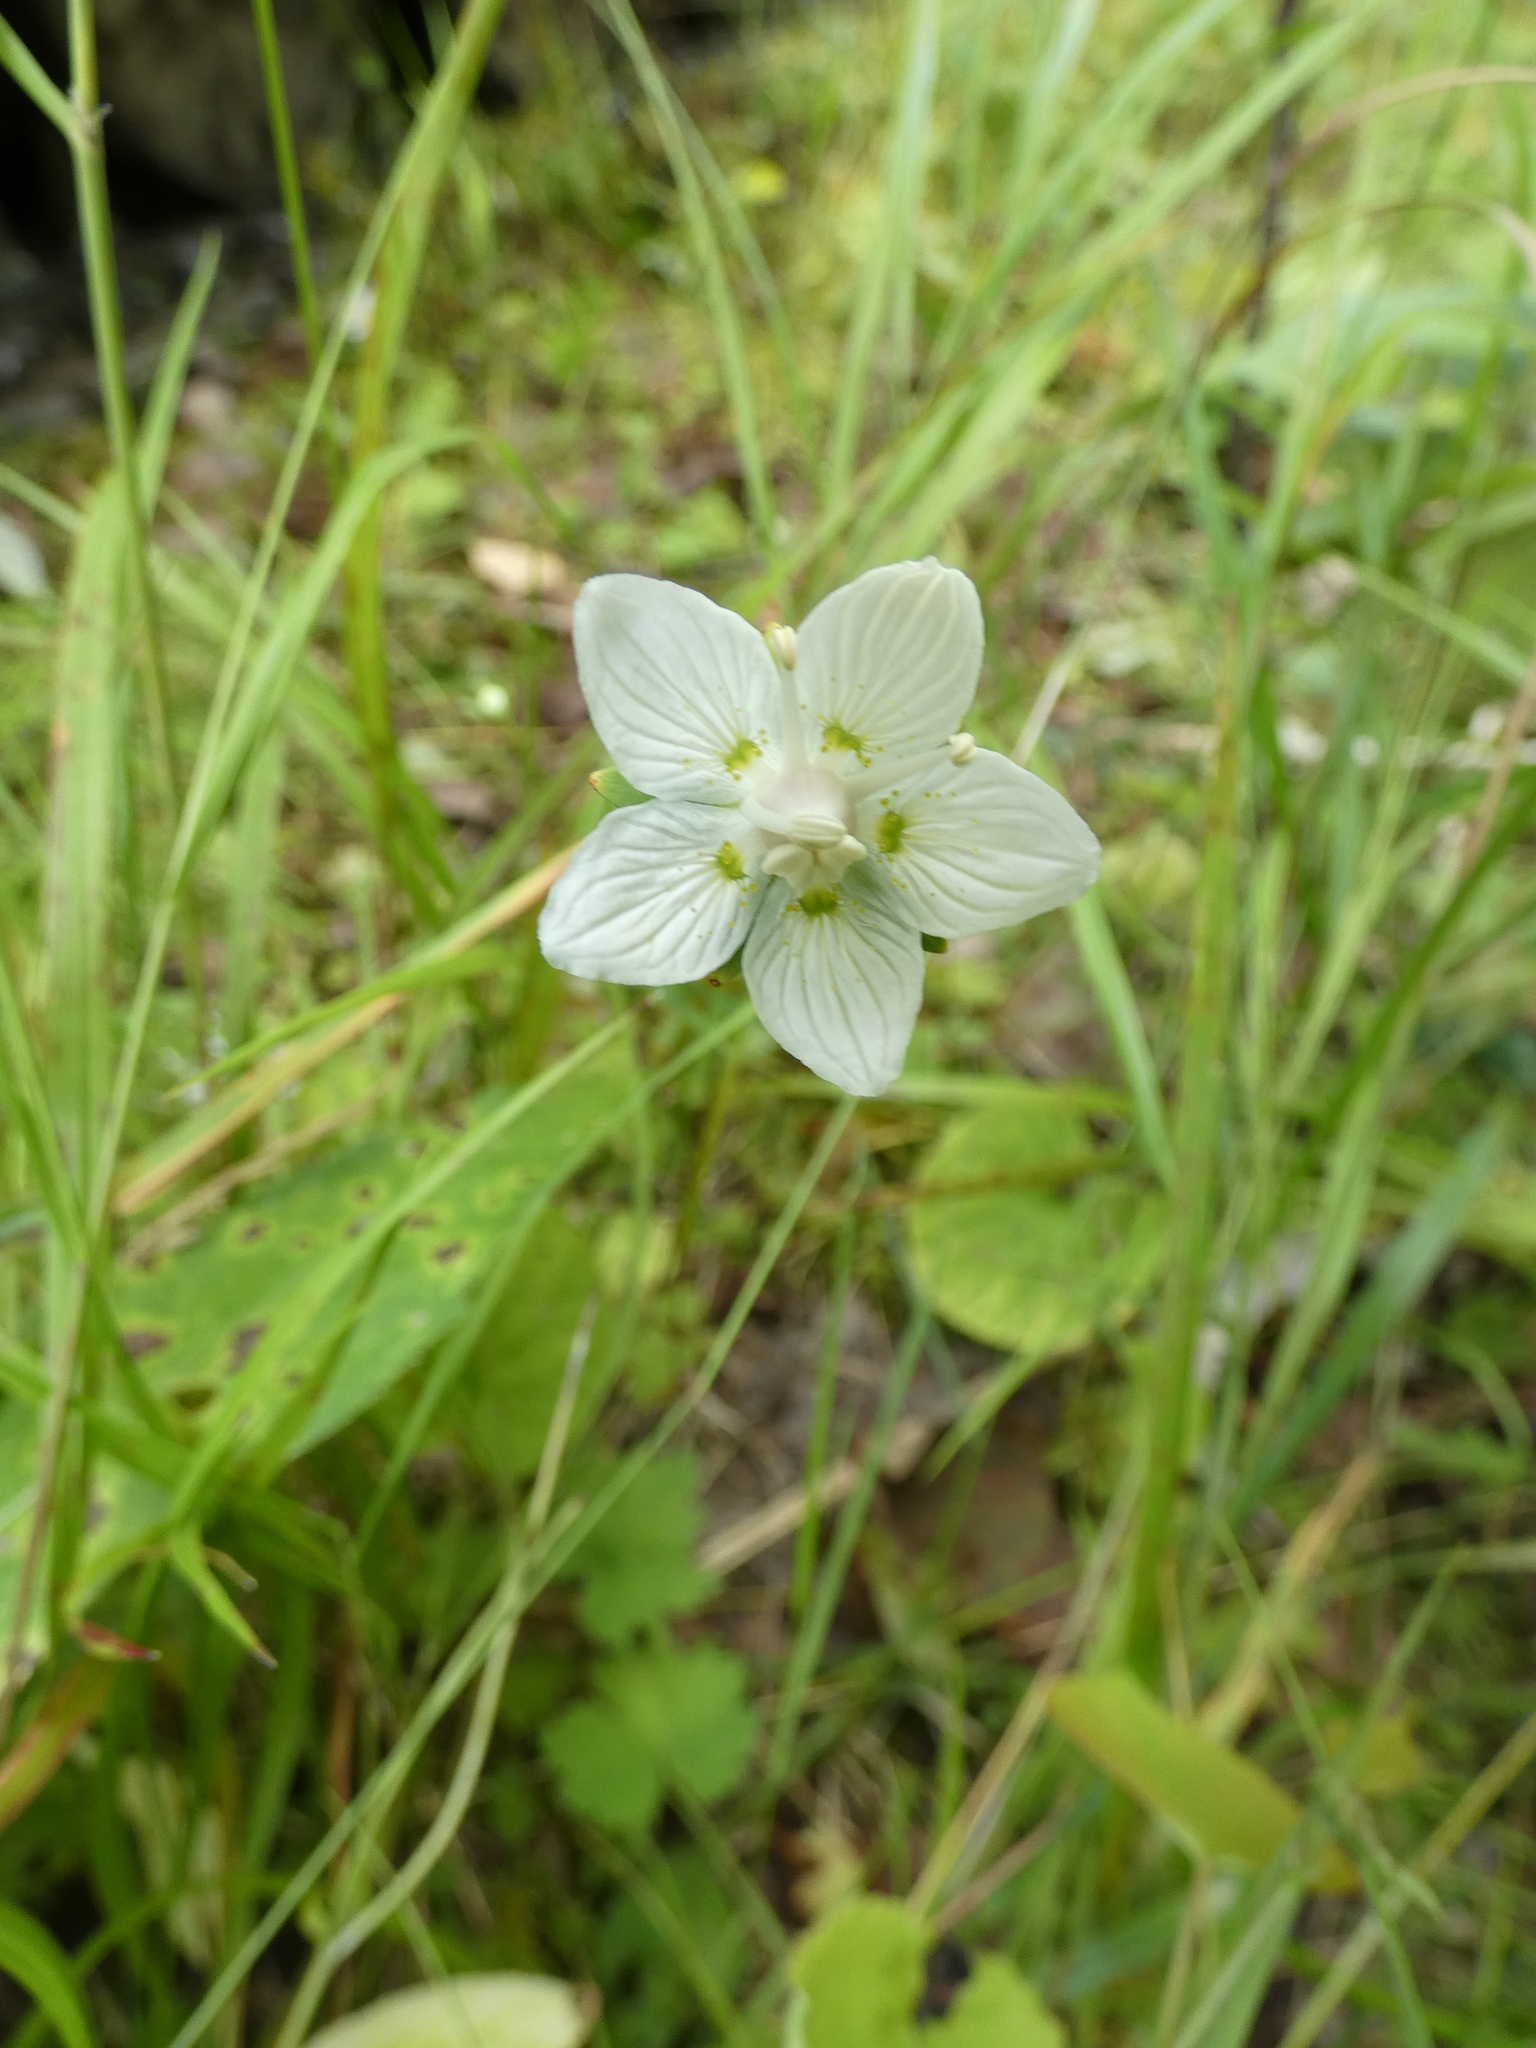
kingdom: Plantae
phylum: Tracheophyta
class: Magnoliopsida
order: Celastrales
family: Parnassiaceae
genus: Parnassia
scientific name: Parnassia palustris
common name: Grass-of-parnassus
